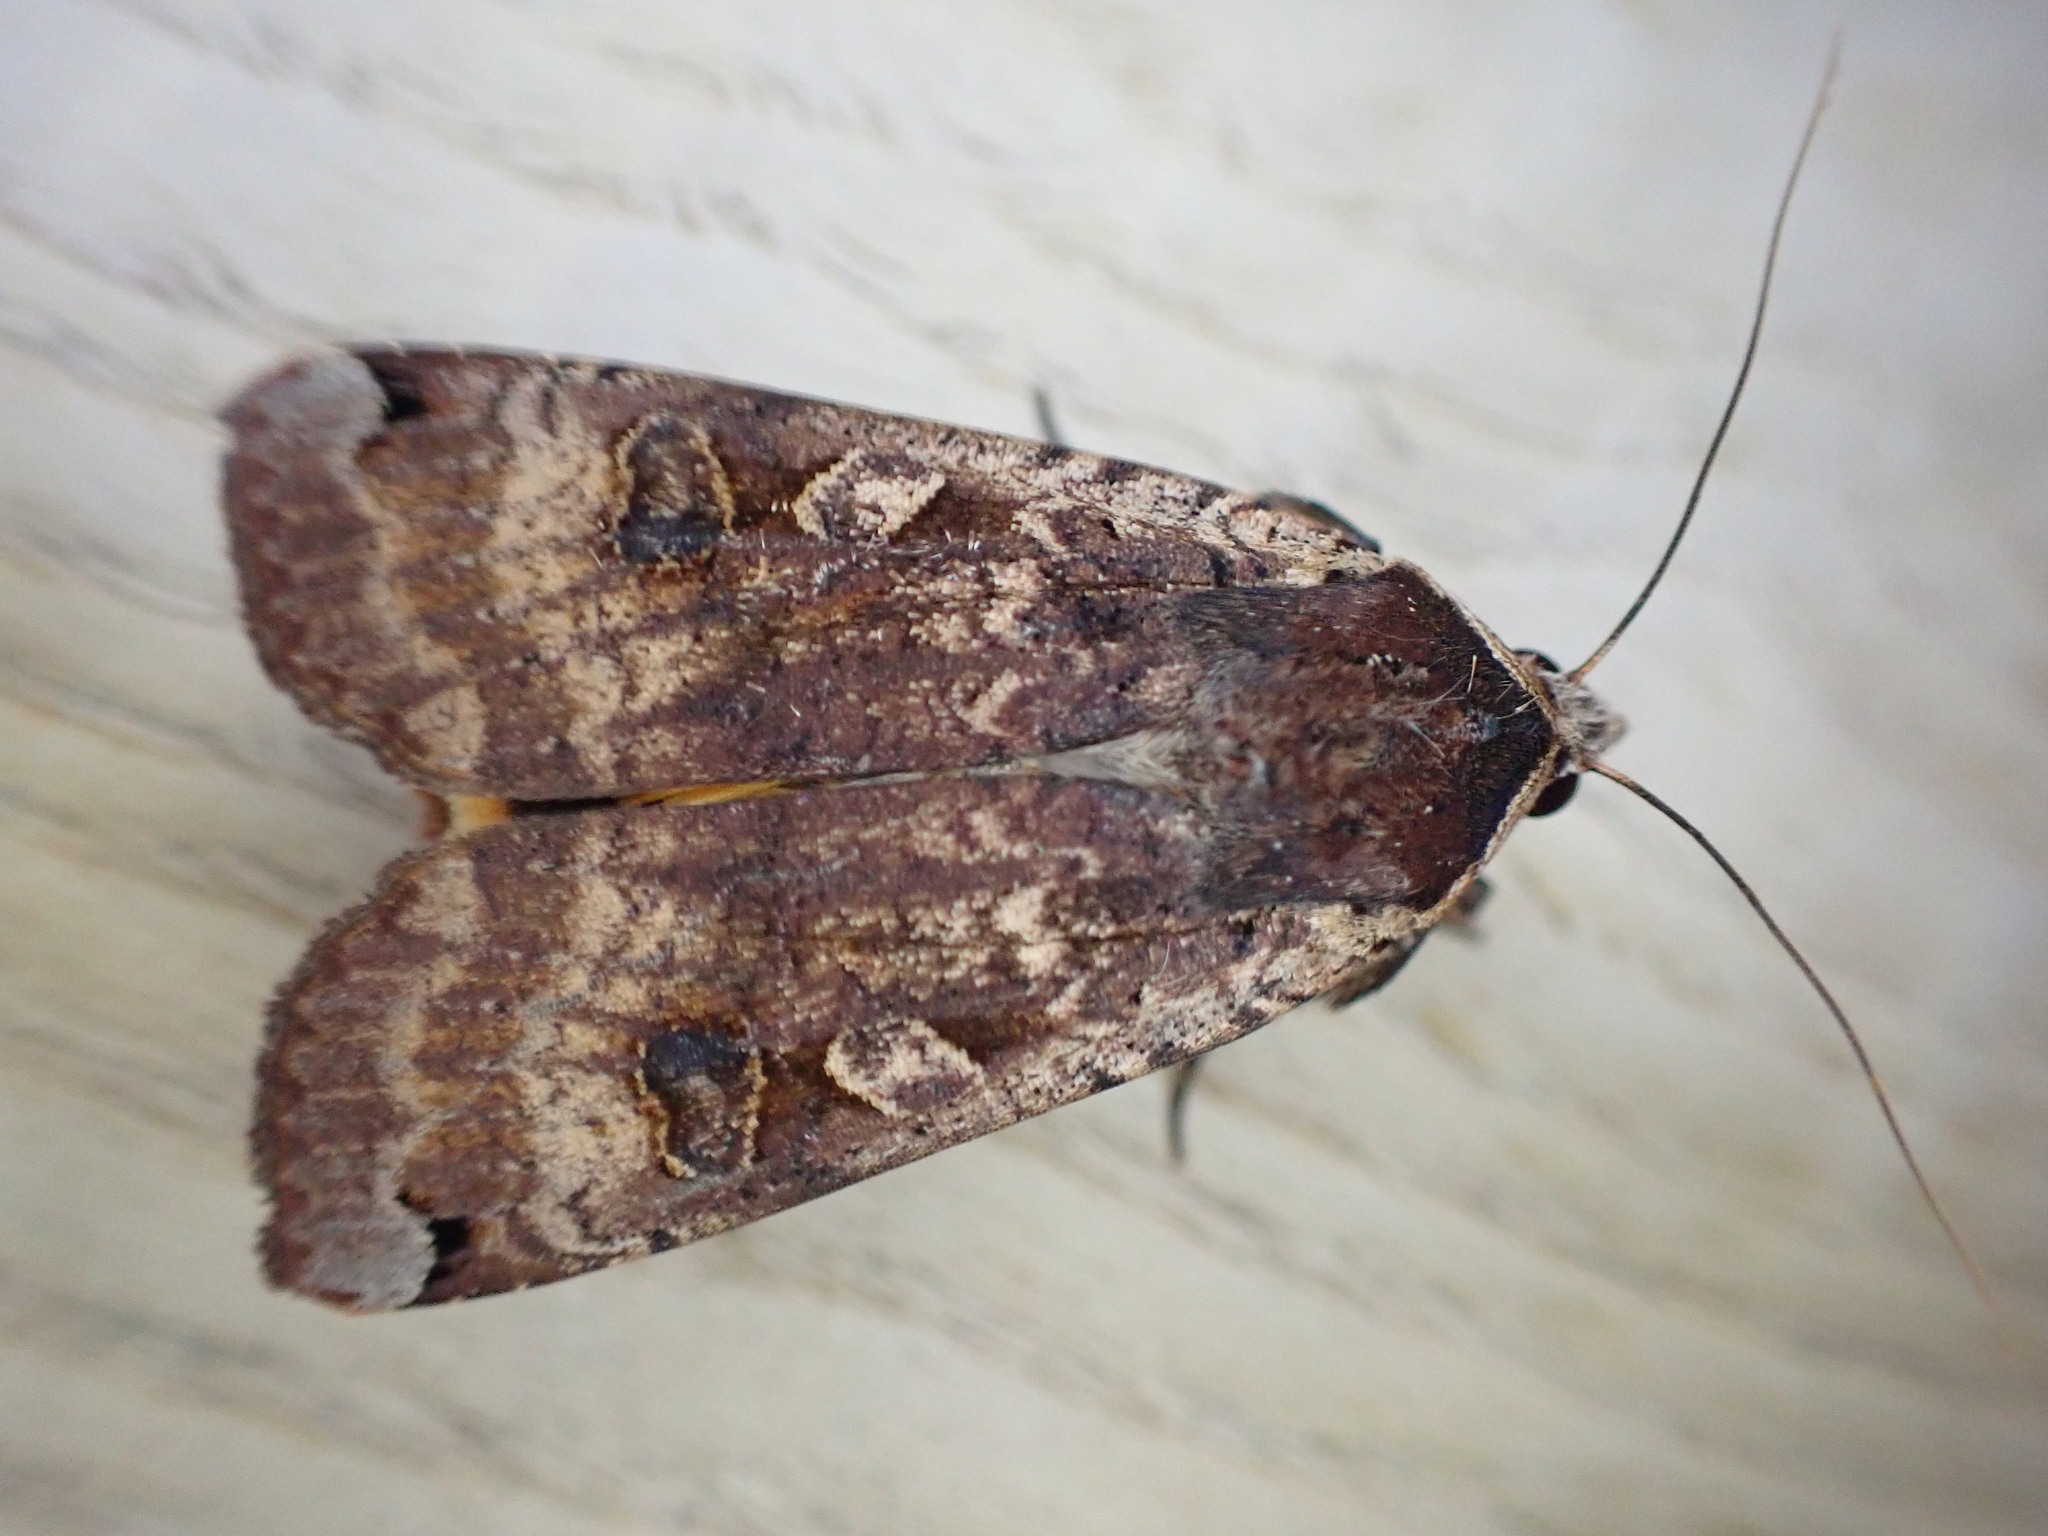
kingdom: Animalia
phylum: Arthropoda
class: Insecta
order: Lepidoptera
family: Noctuidae
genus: Noctua
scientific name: Noctua pronuba
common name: Large yellow underwing
